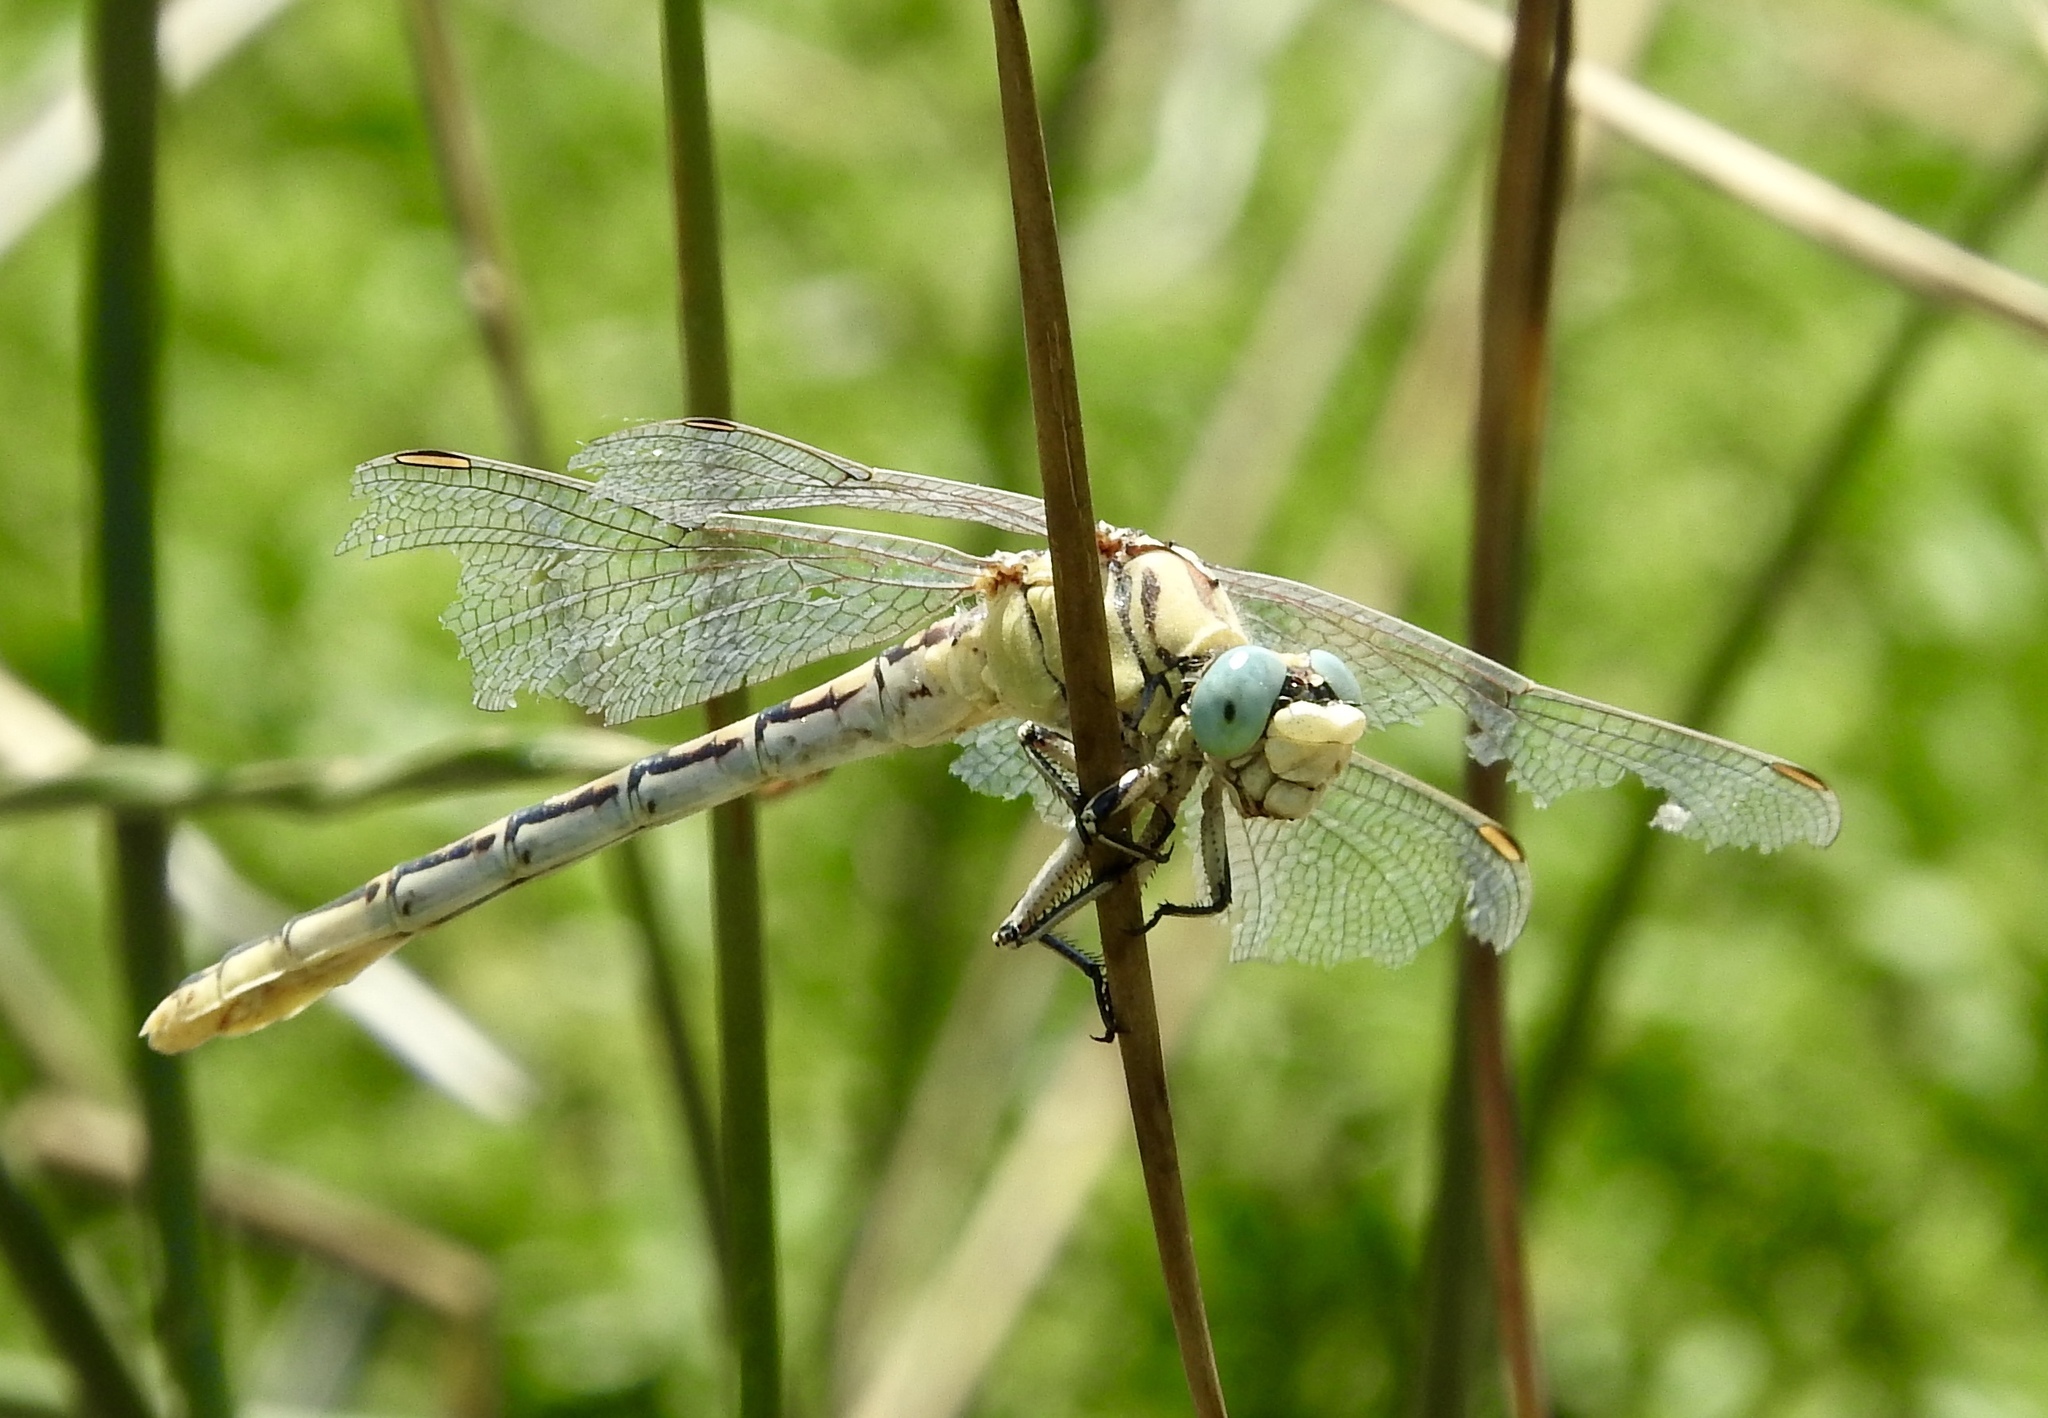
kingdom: Animalia
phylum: Arthropoda
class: Insecta
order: Odonata
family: Gomphidae
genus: Ophiogomphus
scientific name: Ophiogomphus morrisoni
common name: Great basin snaketail
